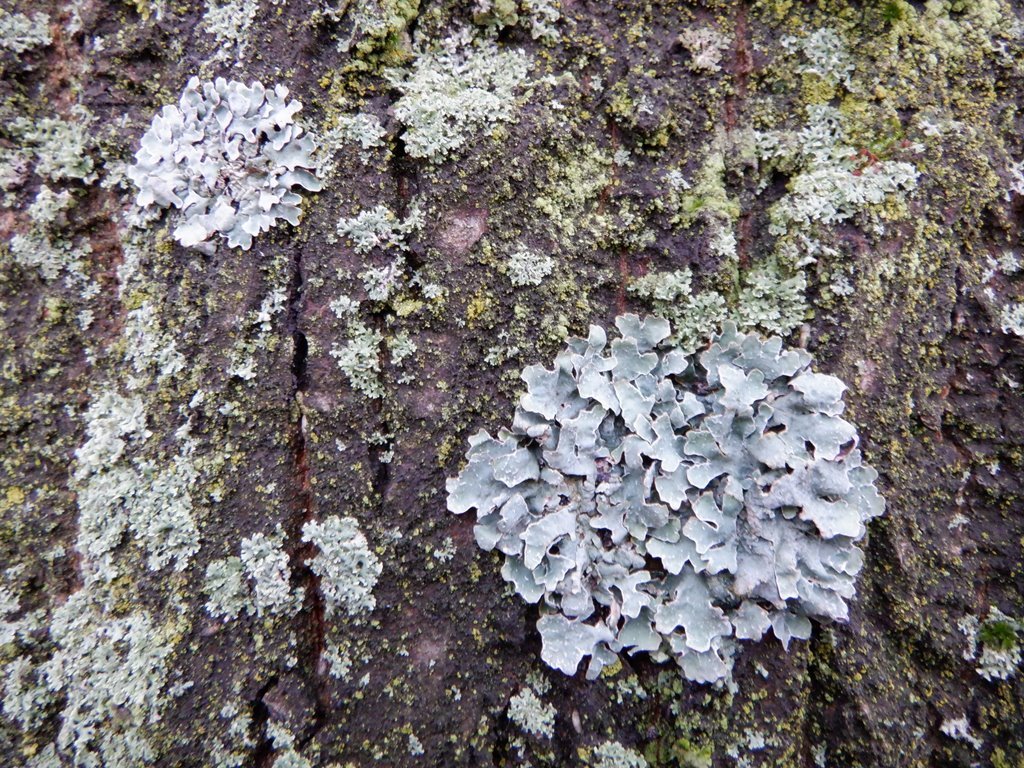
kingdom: Fungi
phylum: Ascomycota
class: Lecanoromycetes
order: Lecanorales
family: Parmeliaceae
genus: Parmelia
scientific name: Parmelia sulcata
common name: Netted shield lichen
